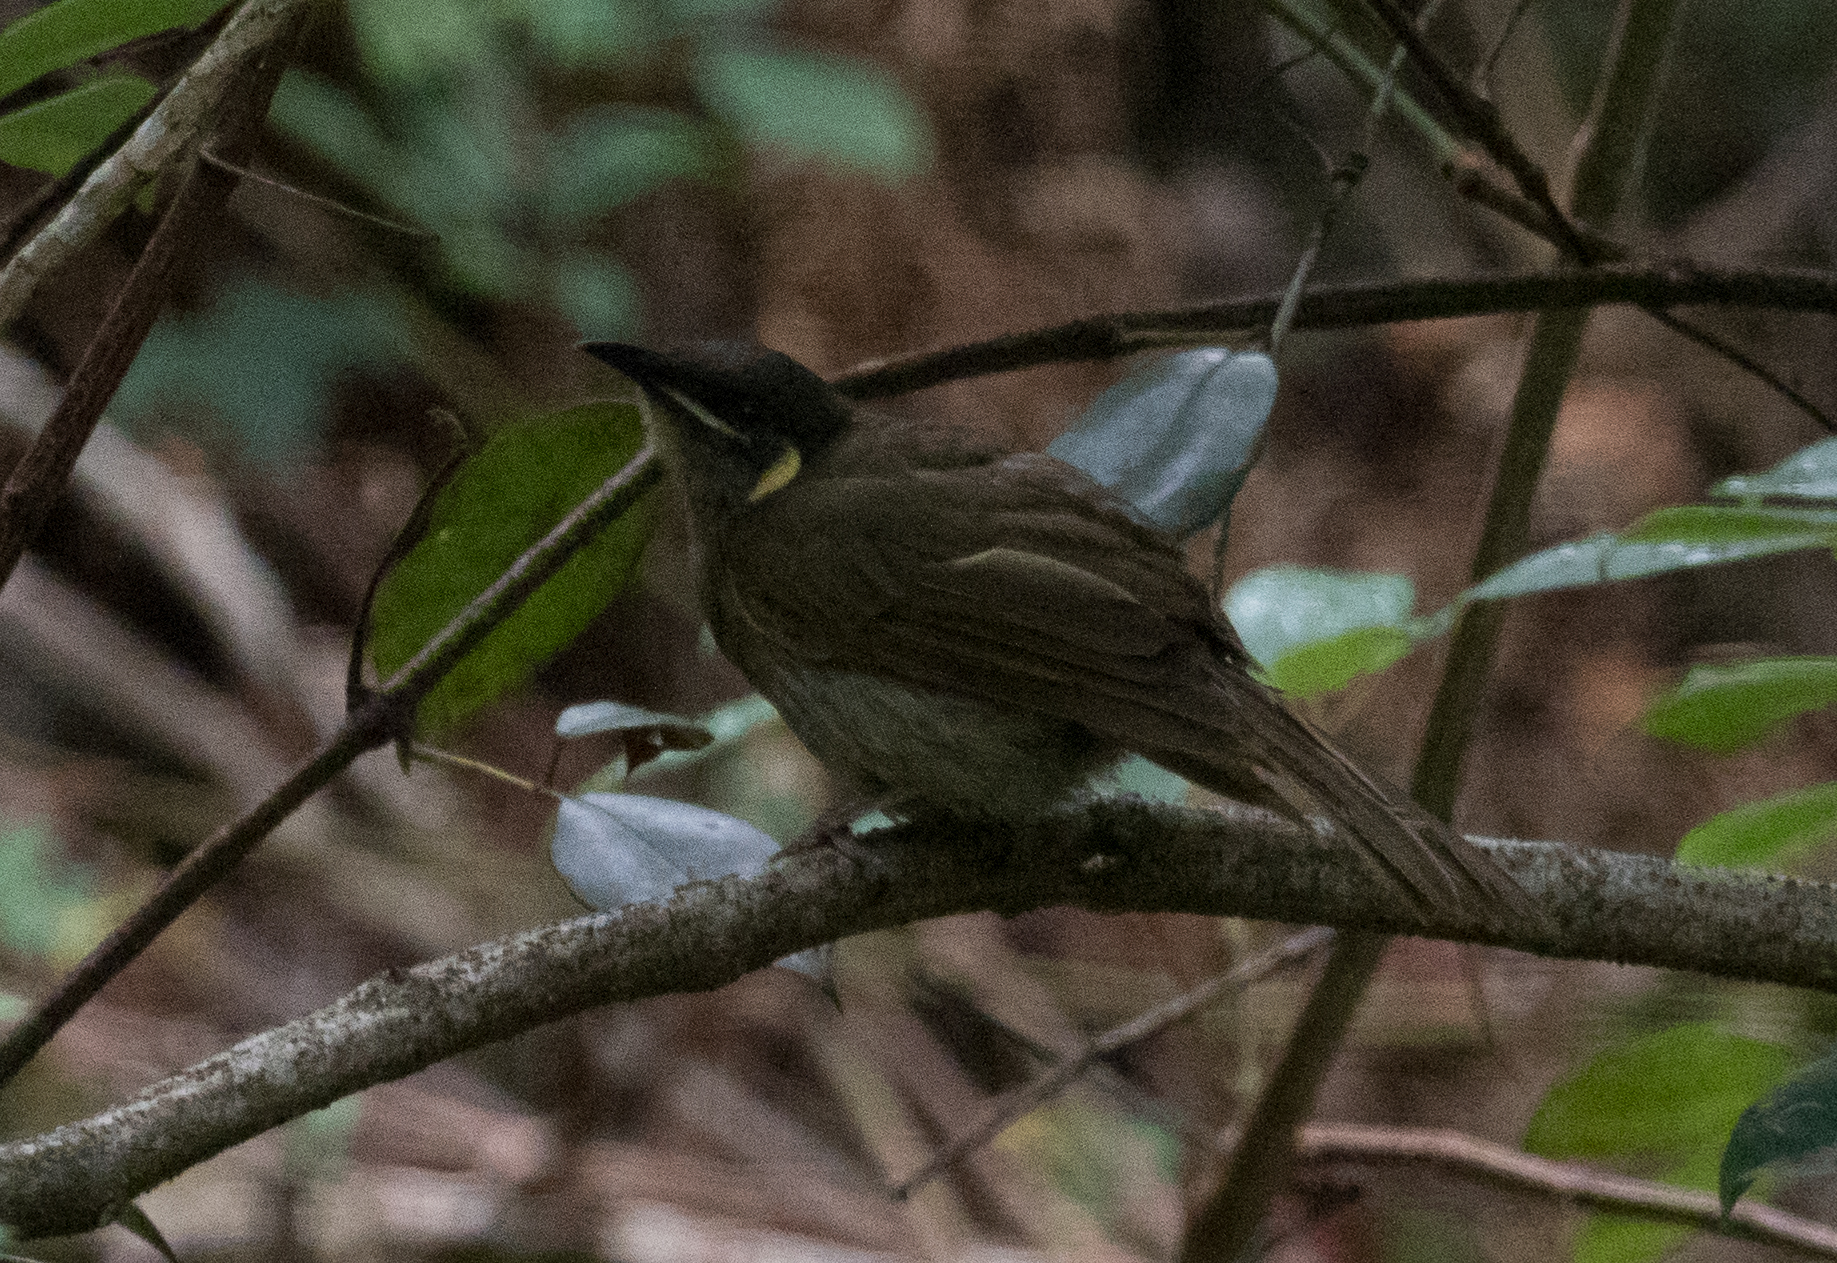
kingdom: Animalia
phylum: Chordata
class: Aves
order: Passeriformes
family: Meliphagidae
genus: Meliphaga
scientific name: Meliphaga lewinii
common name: Lewin's honeyeater
